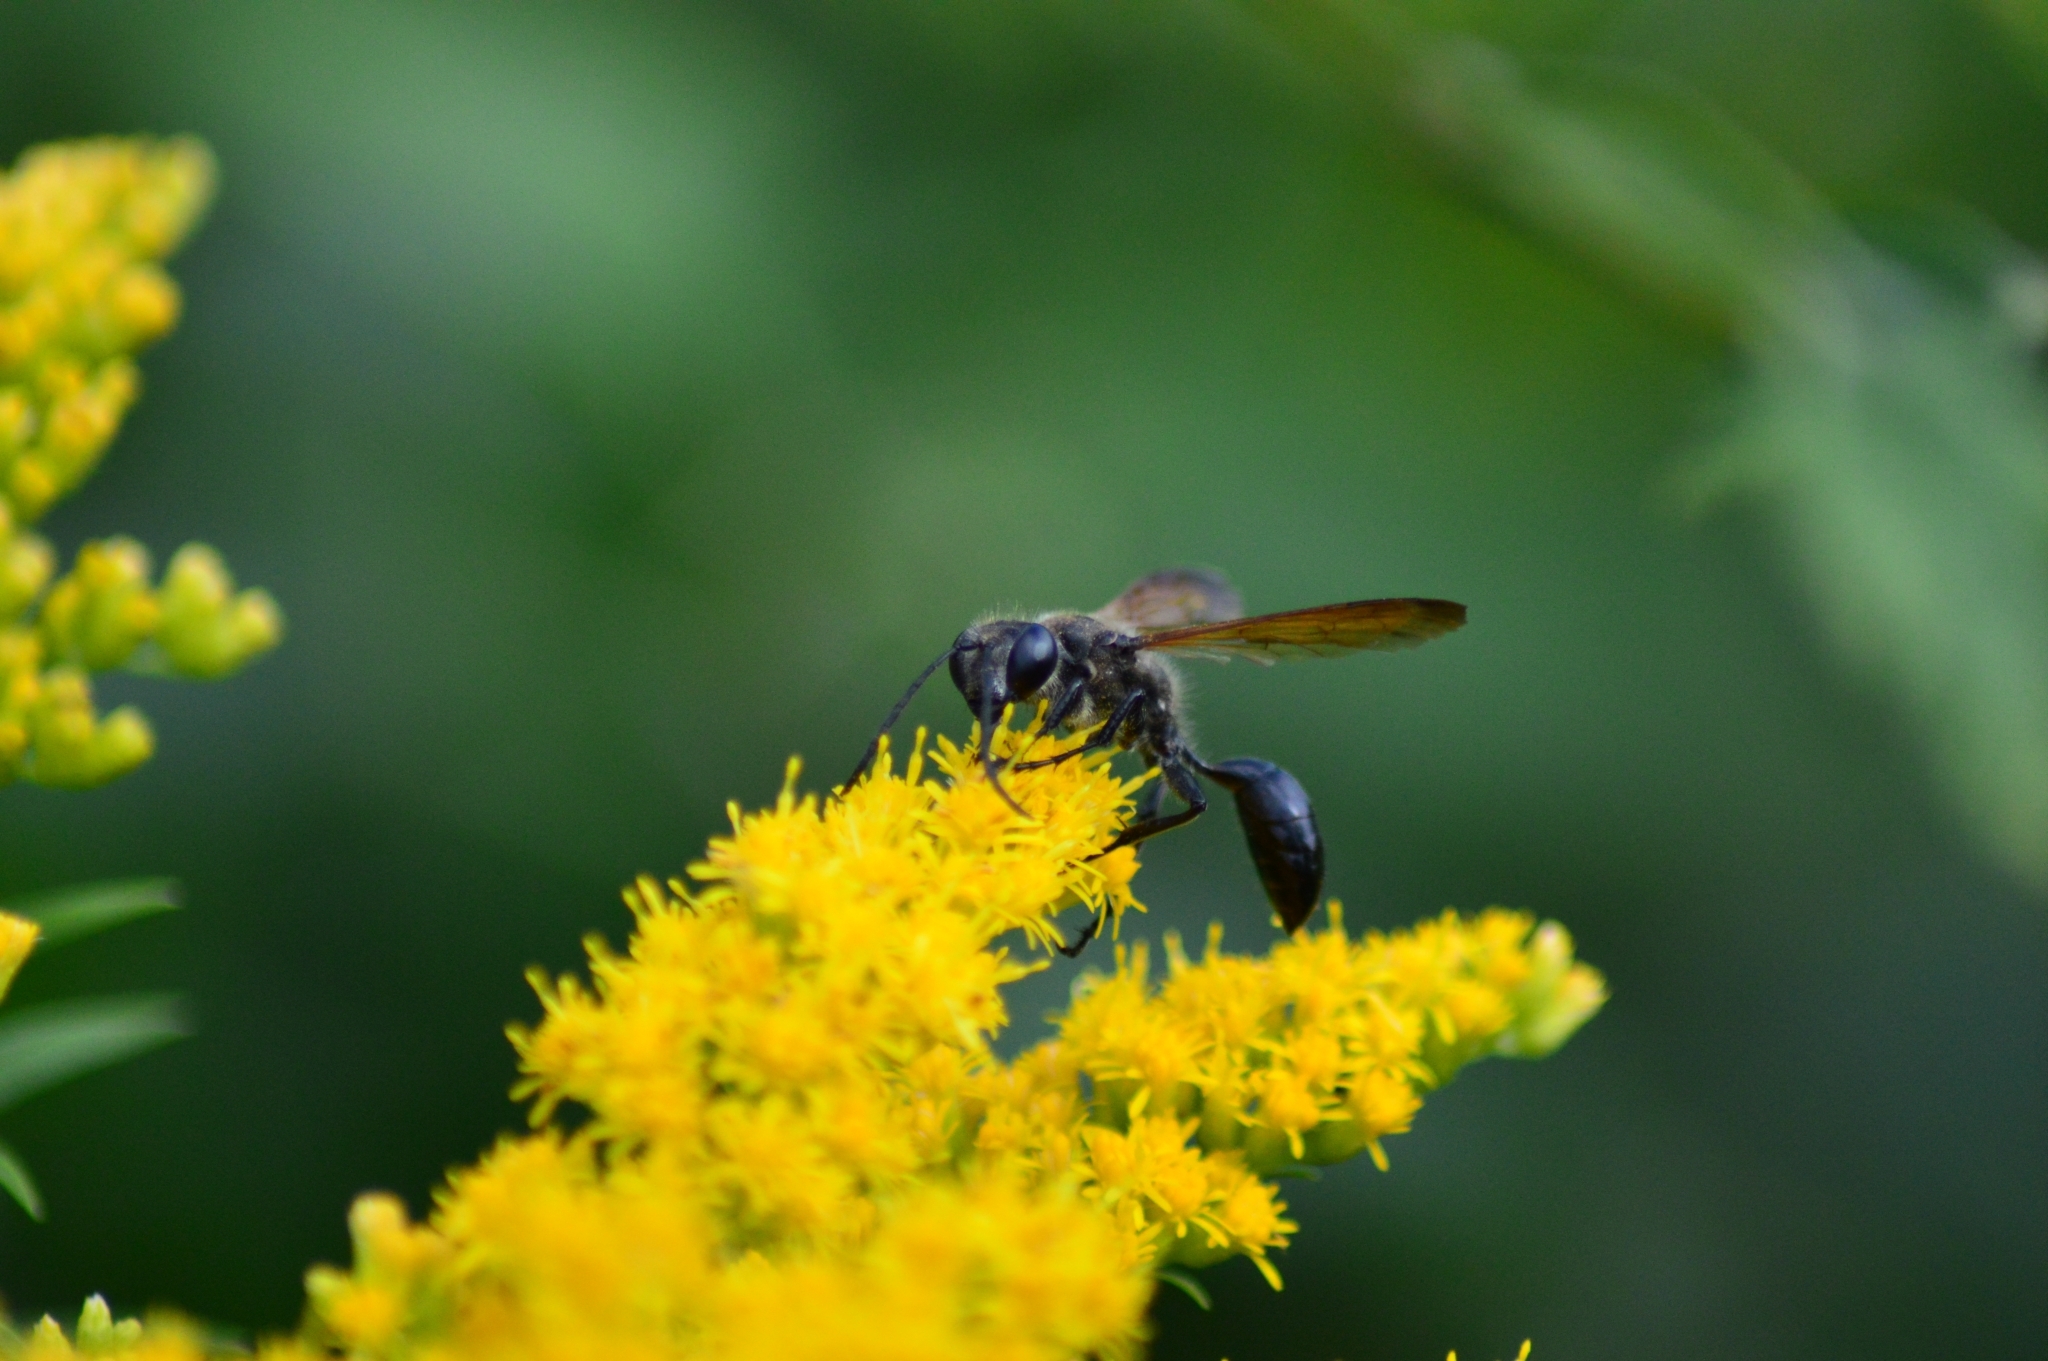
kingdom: Animalia
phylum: Arthropoda
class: Insecta
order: Hymenoptera
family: Sphecidae
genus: Isodontia
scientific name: Isodontia mexicana
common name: Mud dauber
